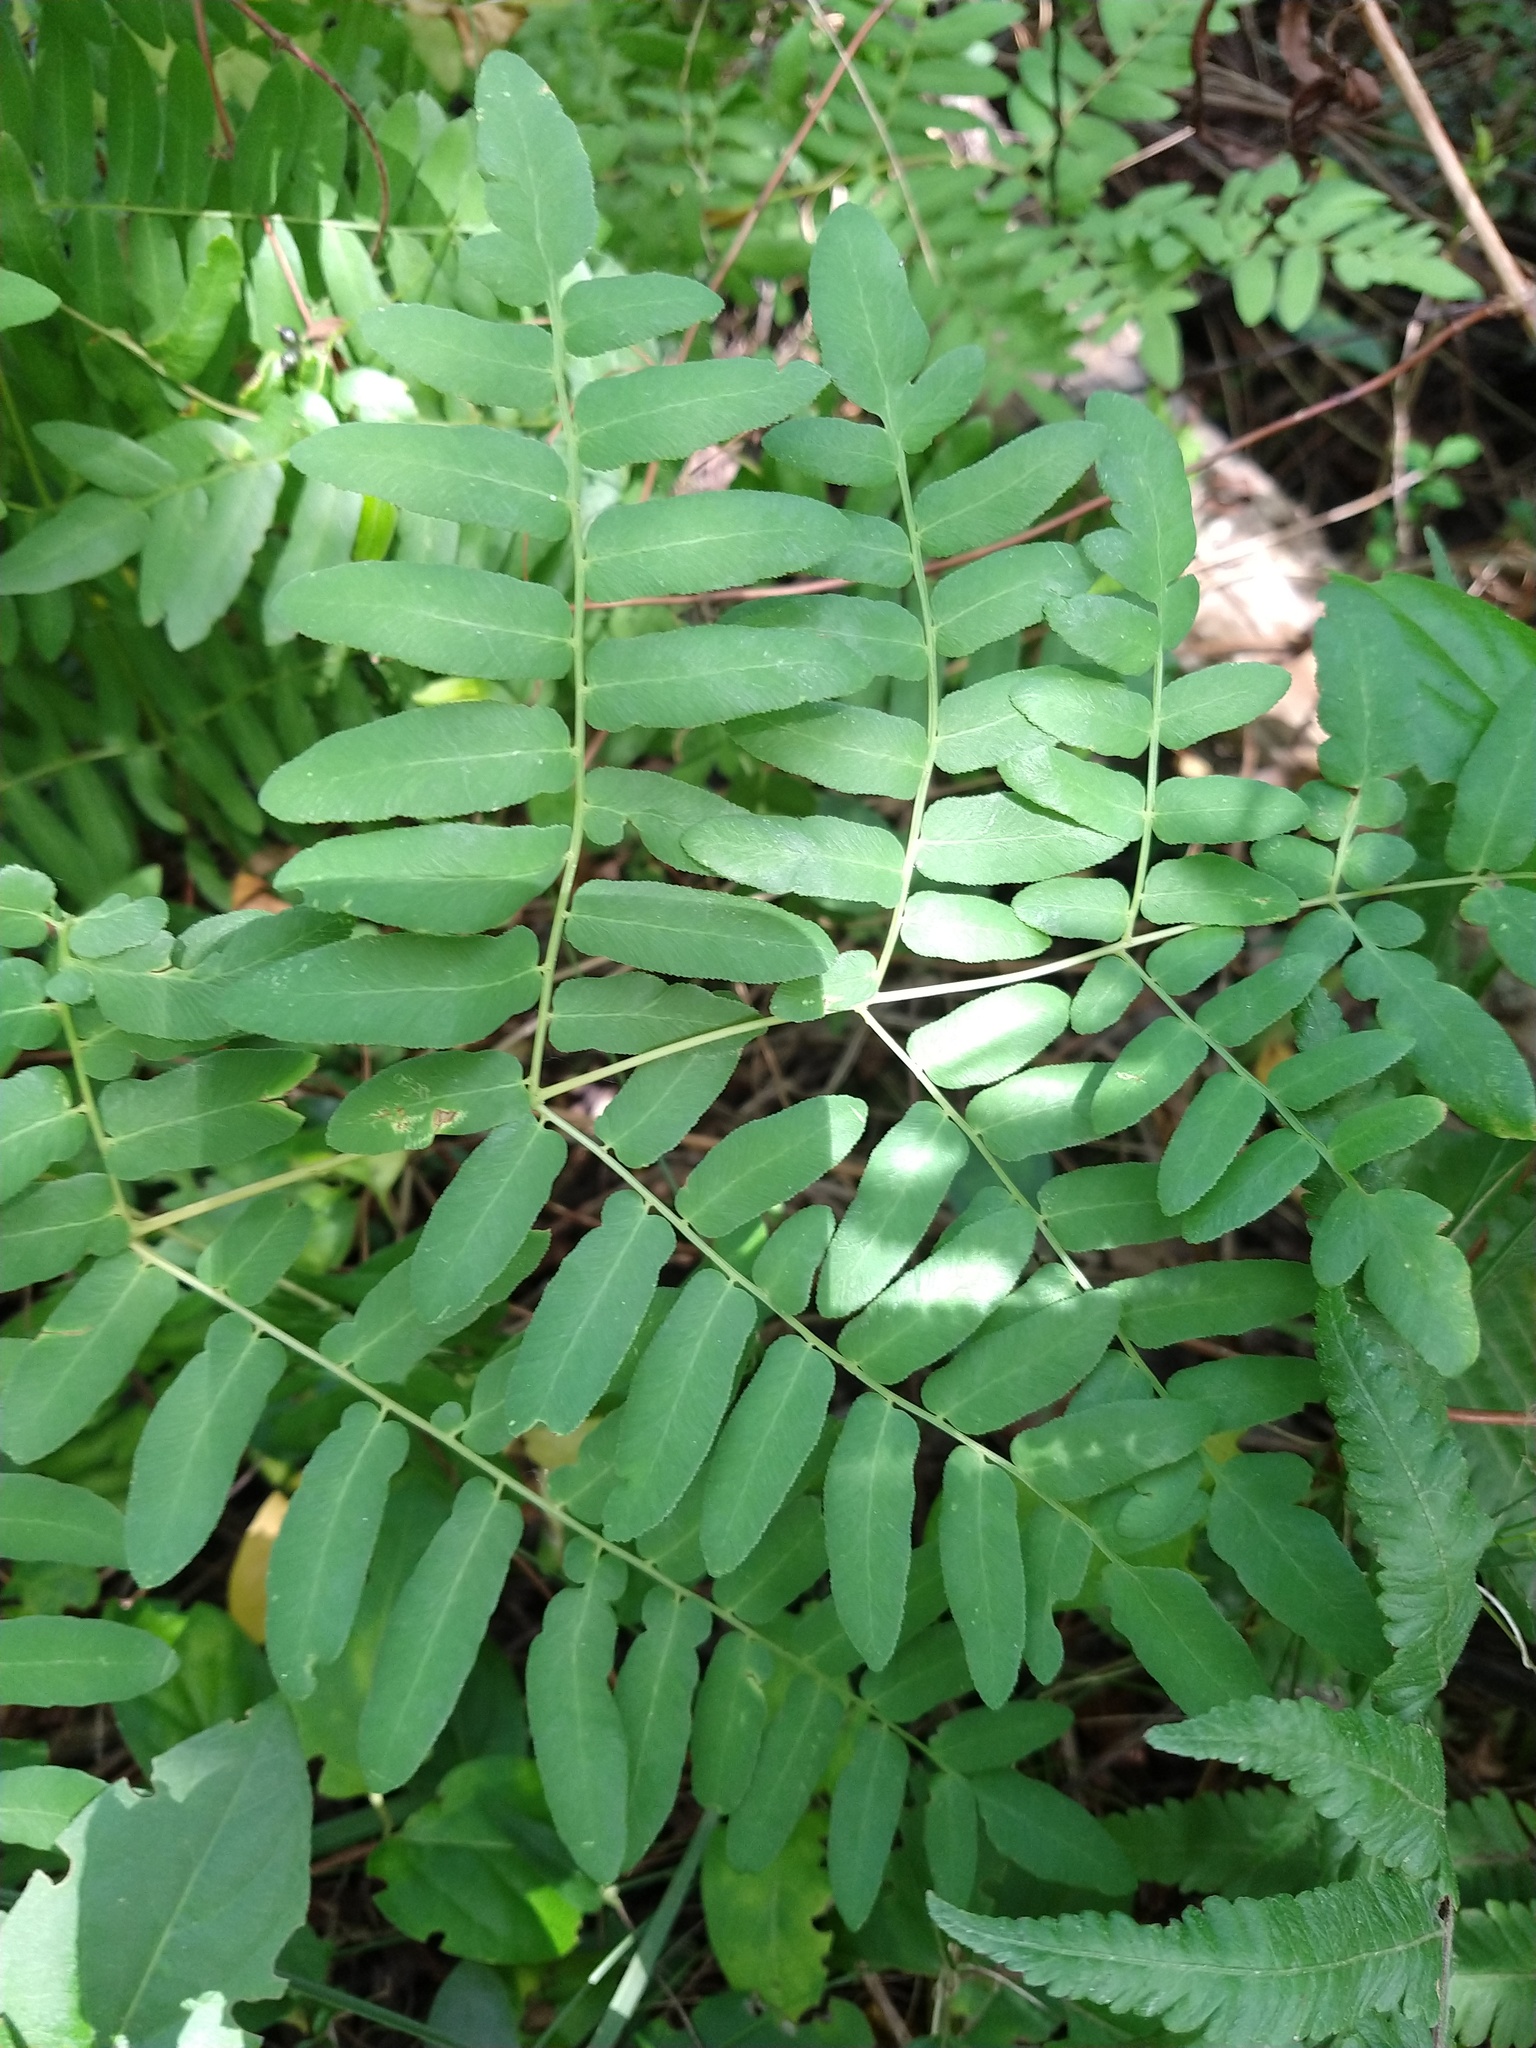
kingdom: Plantae
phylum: Tracheophyta
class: Polypodiopsida
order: Osmundales
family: Osmundaceae
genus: Osmunda
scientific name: Osmunda spectabilis
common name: American royal fern
